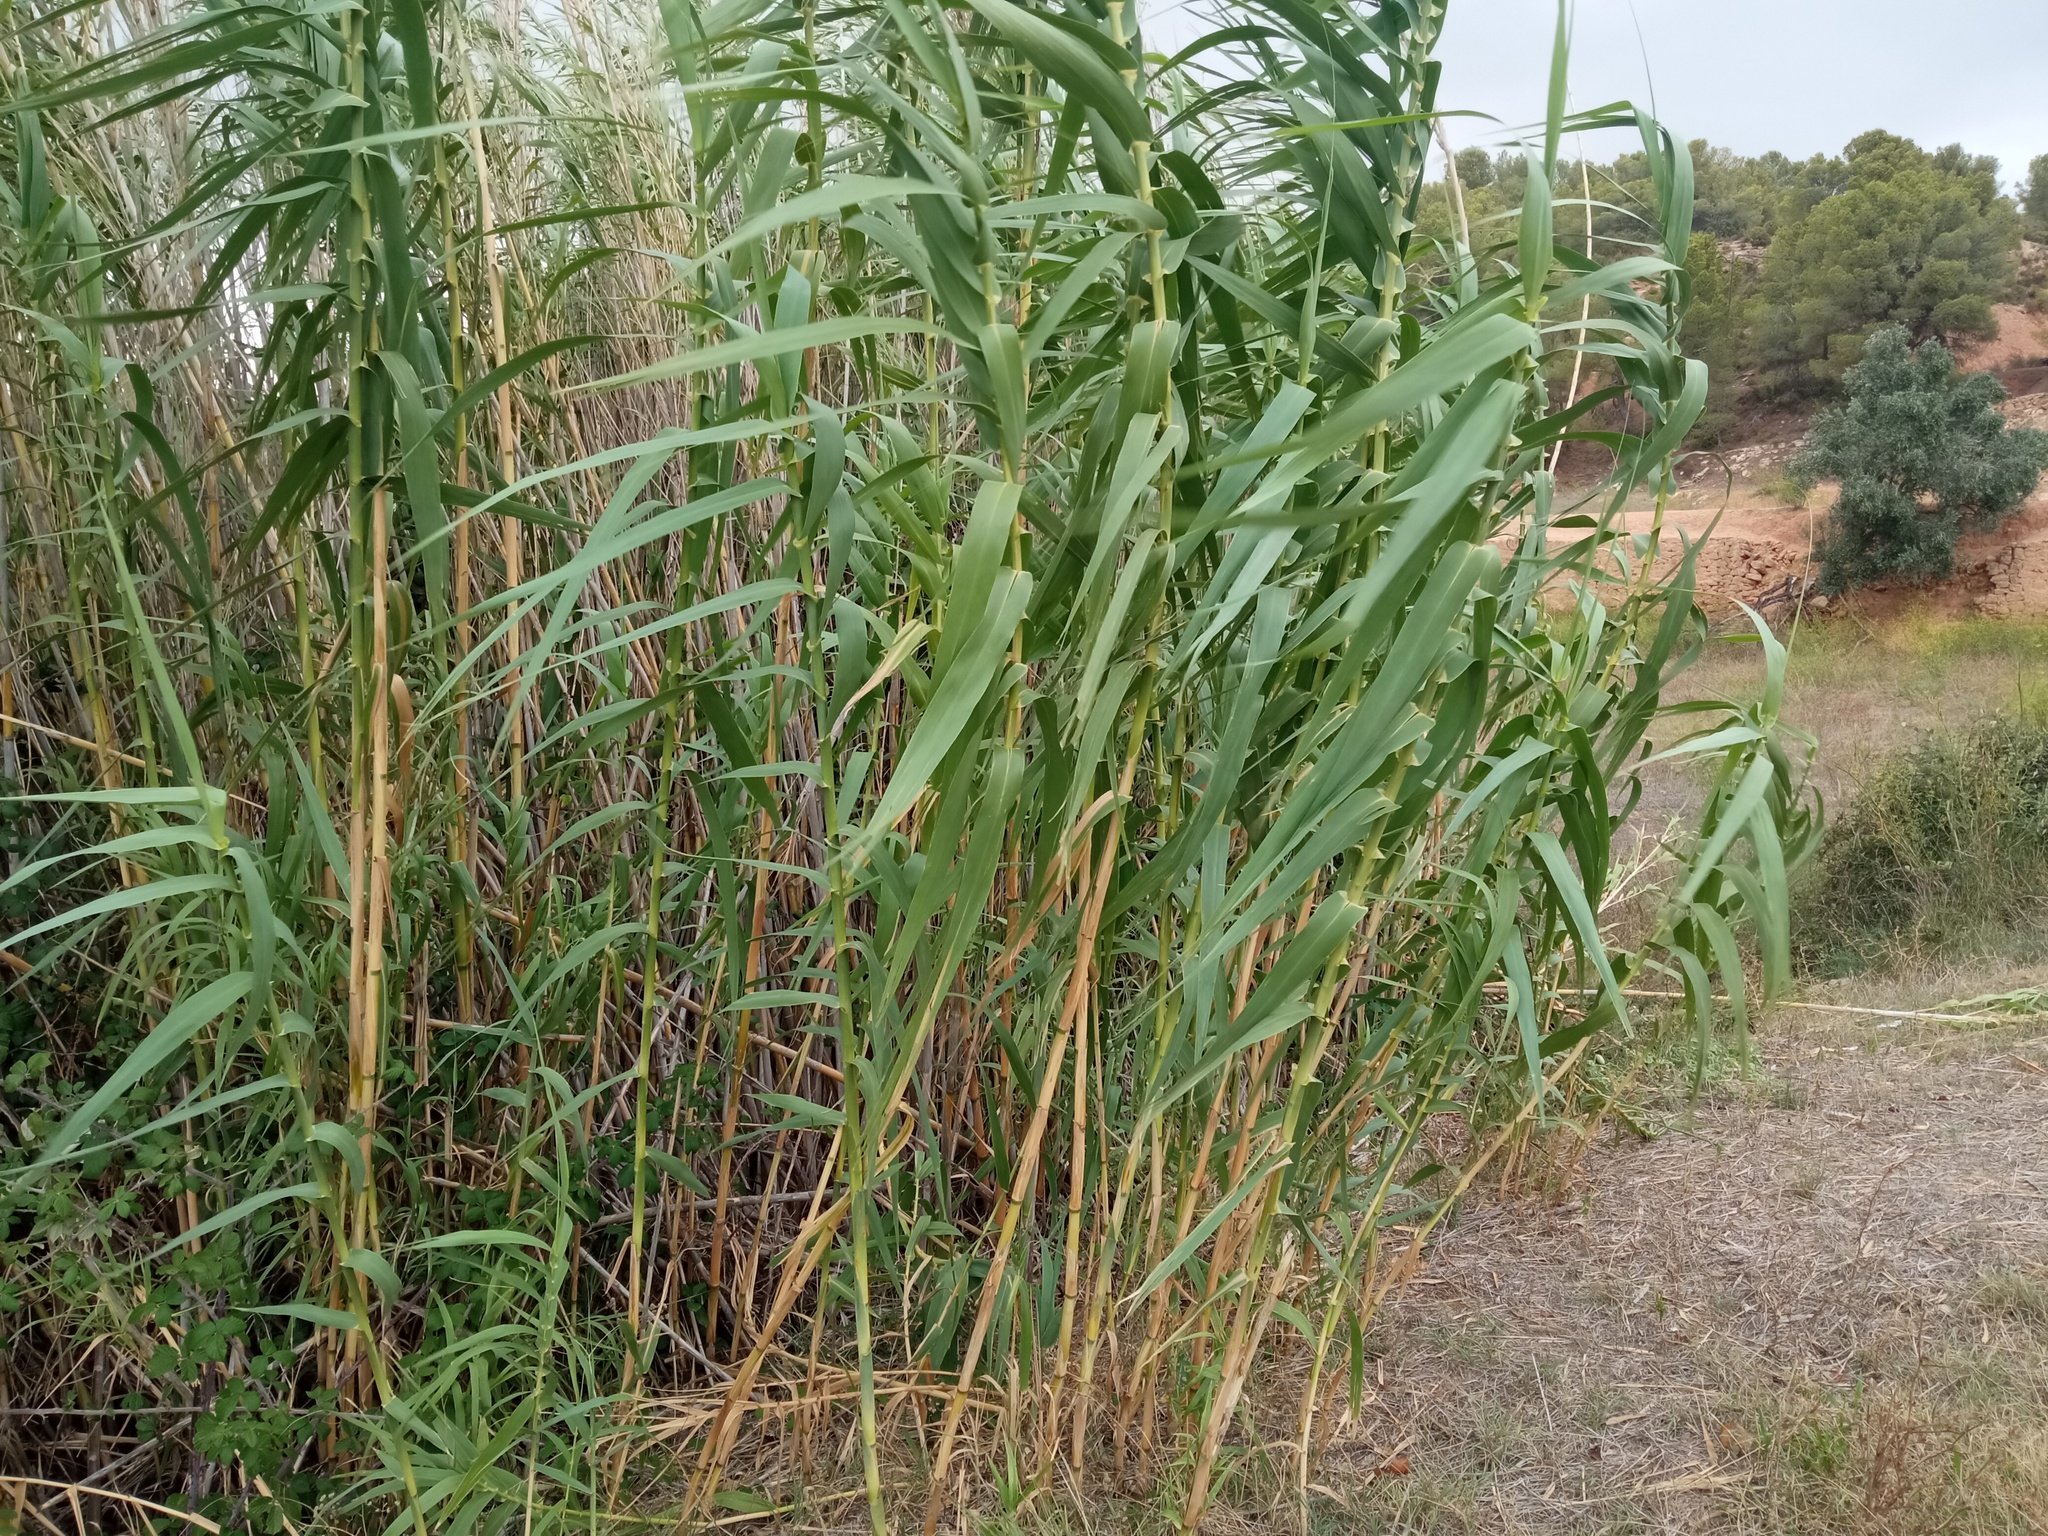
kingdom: Plantae
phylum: Tracheophyta
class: Liliopsida
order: Poales
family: Poaceae
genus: Arundo
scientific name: Arundo donax
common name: Giant reed
